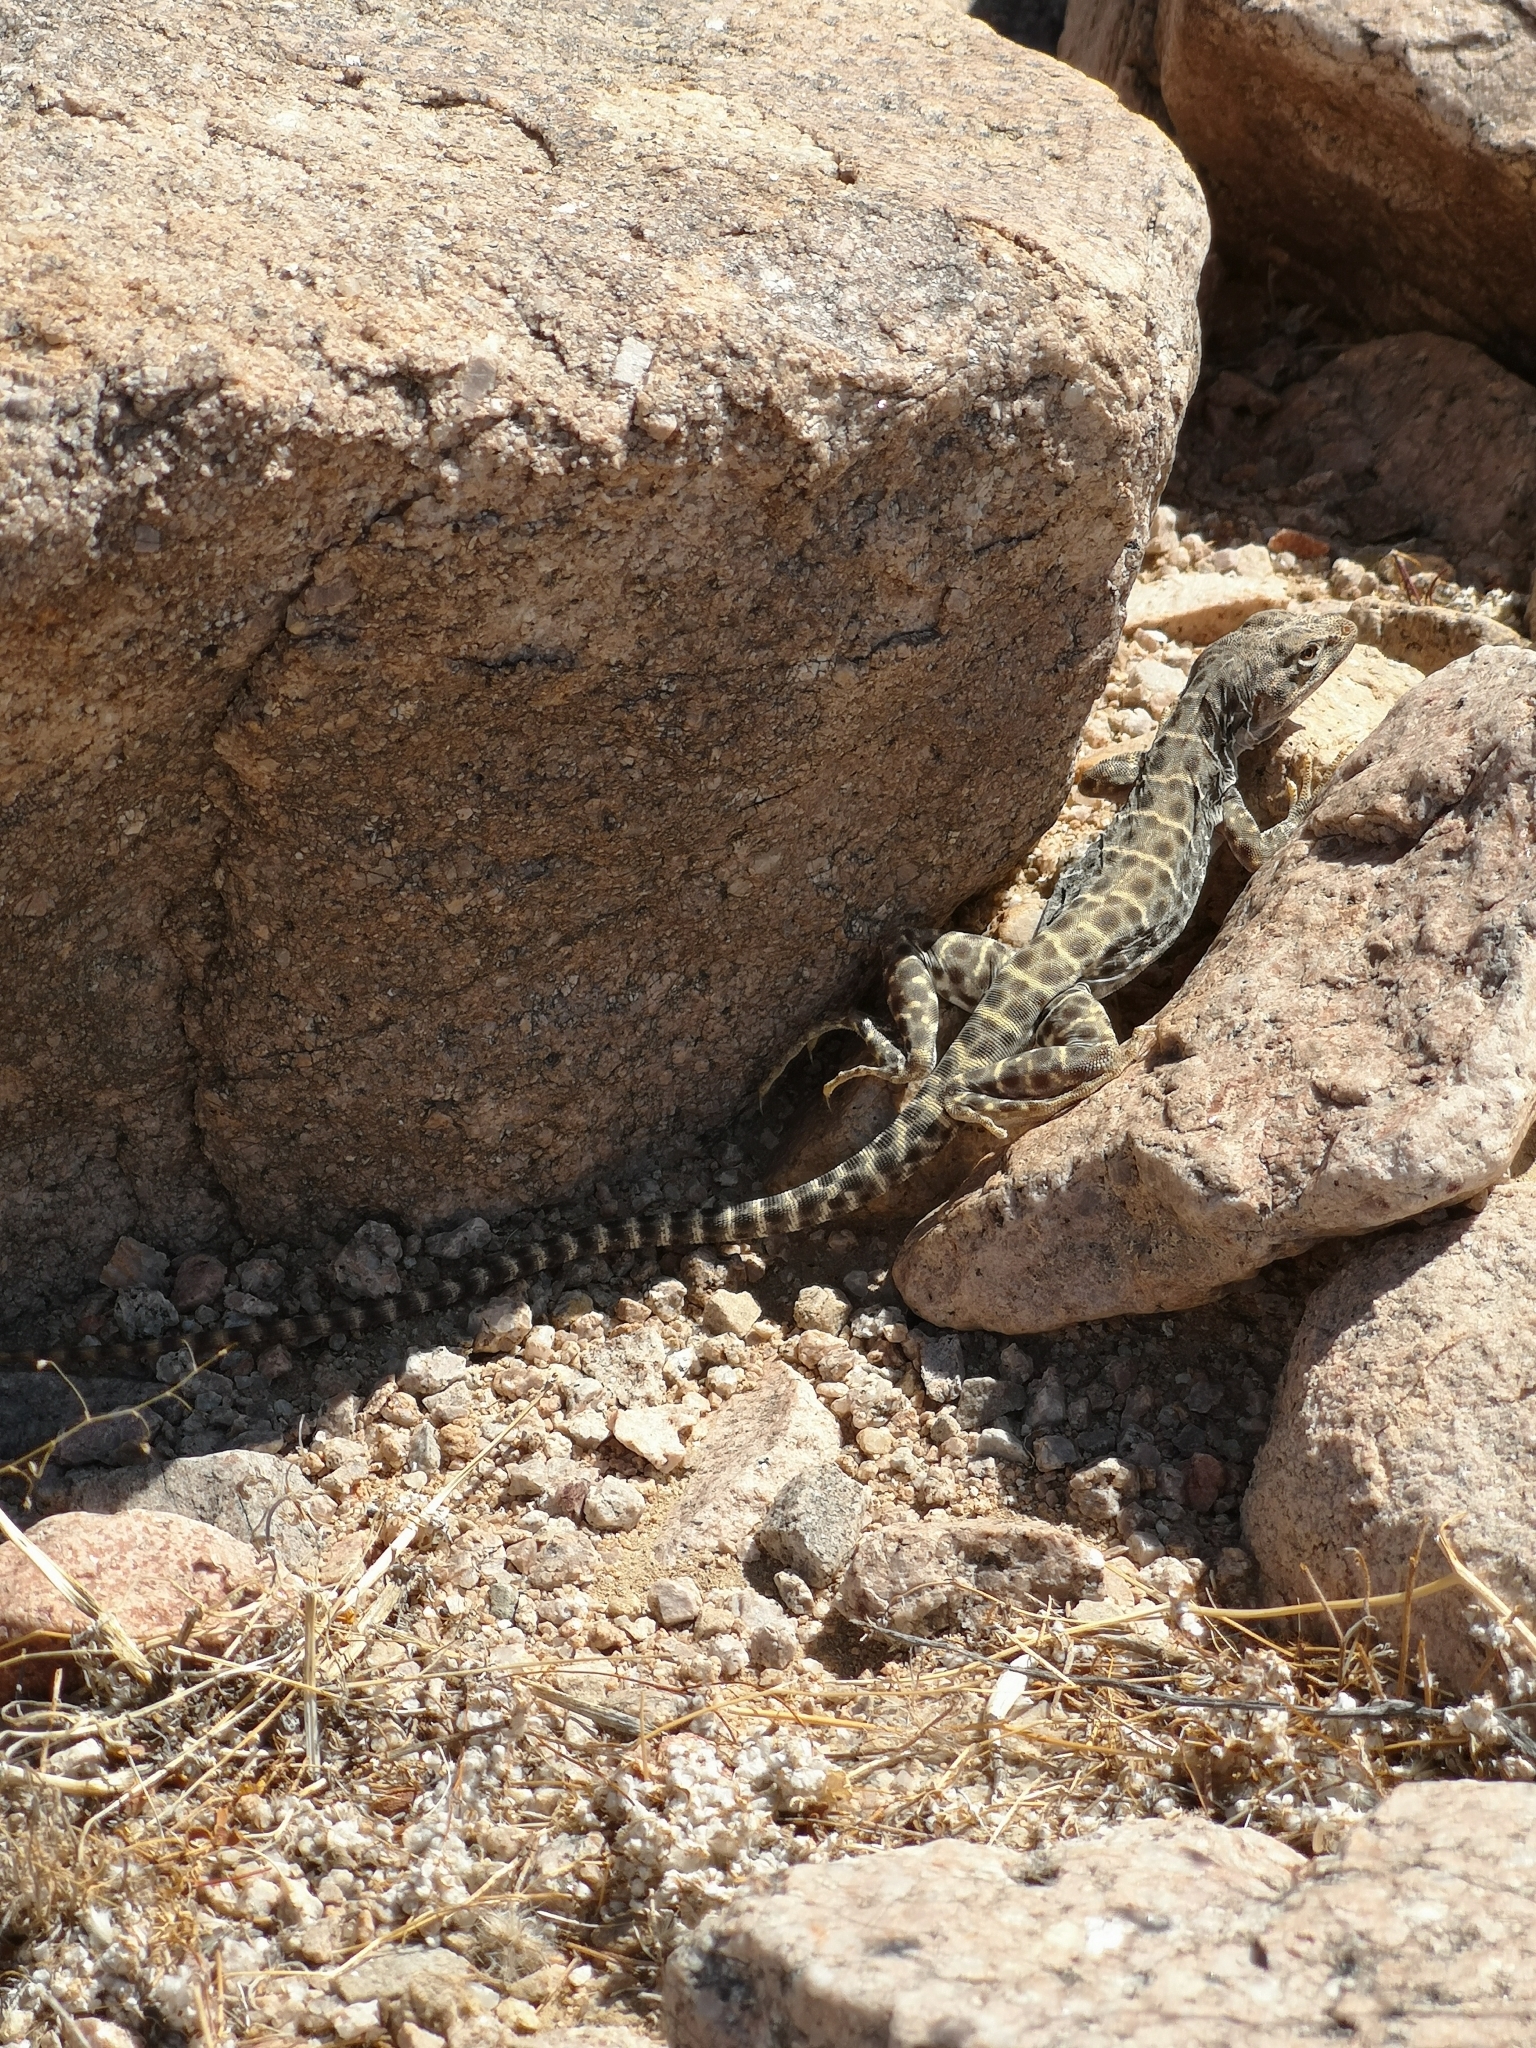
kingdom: Animalia
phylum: Chordata
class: Squamata
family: Crotaphytidae
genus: Gambelia
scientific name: Gambelia wislizenii
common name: Longnose leopard lizard
